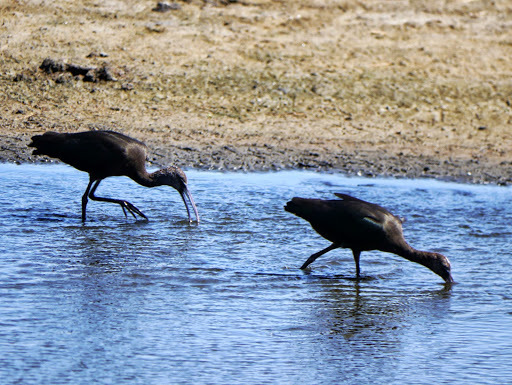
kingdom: Animalia
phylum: Chordata
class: Aves
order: Pelecaniformes
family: Threskiornithidae
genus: Plegadis
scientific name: Plegadis falcinellus
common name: Glossy ibis
